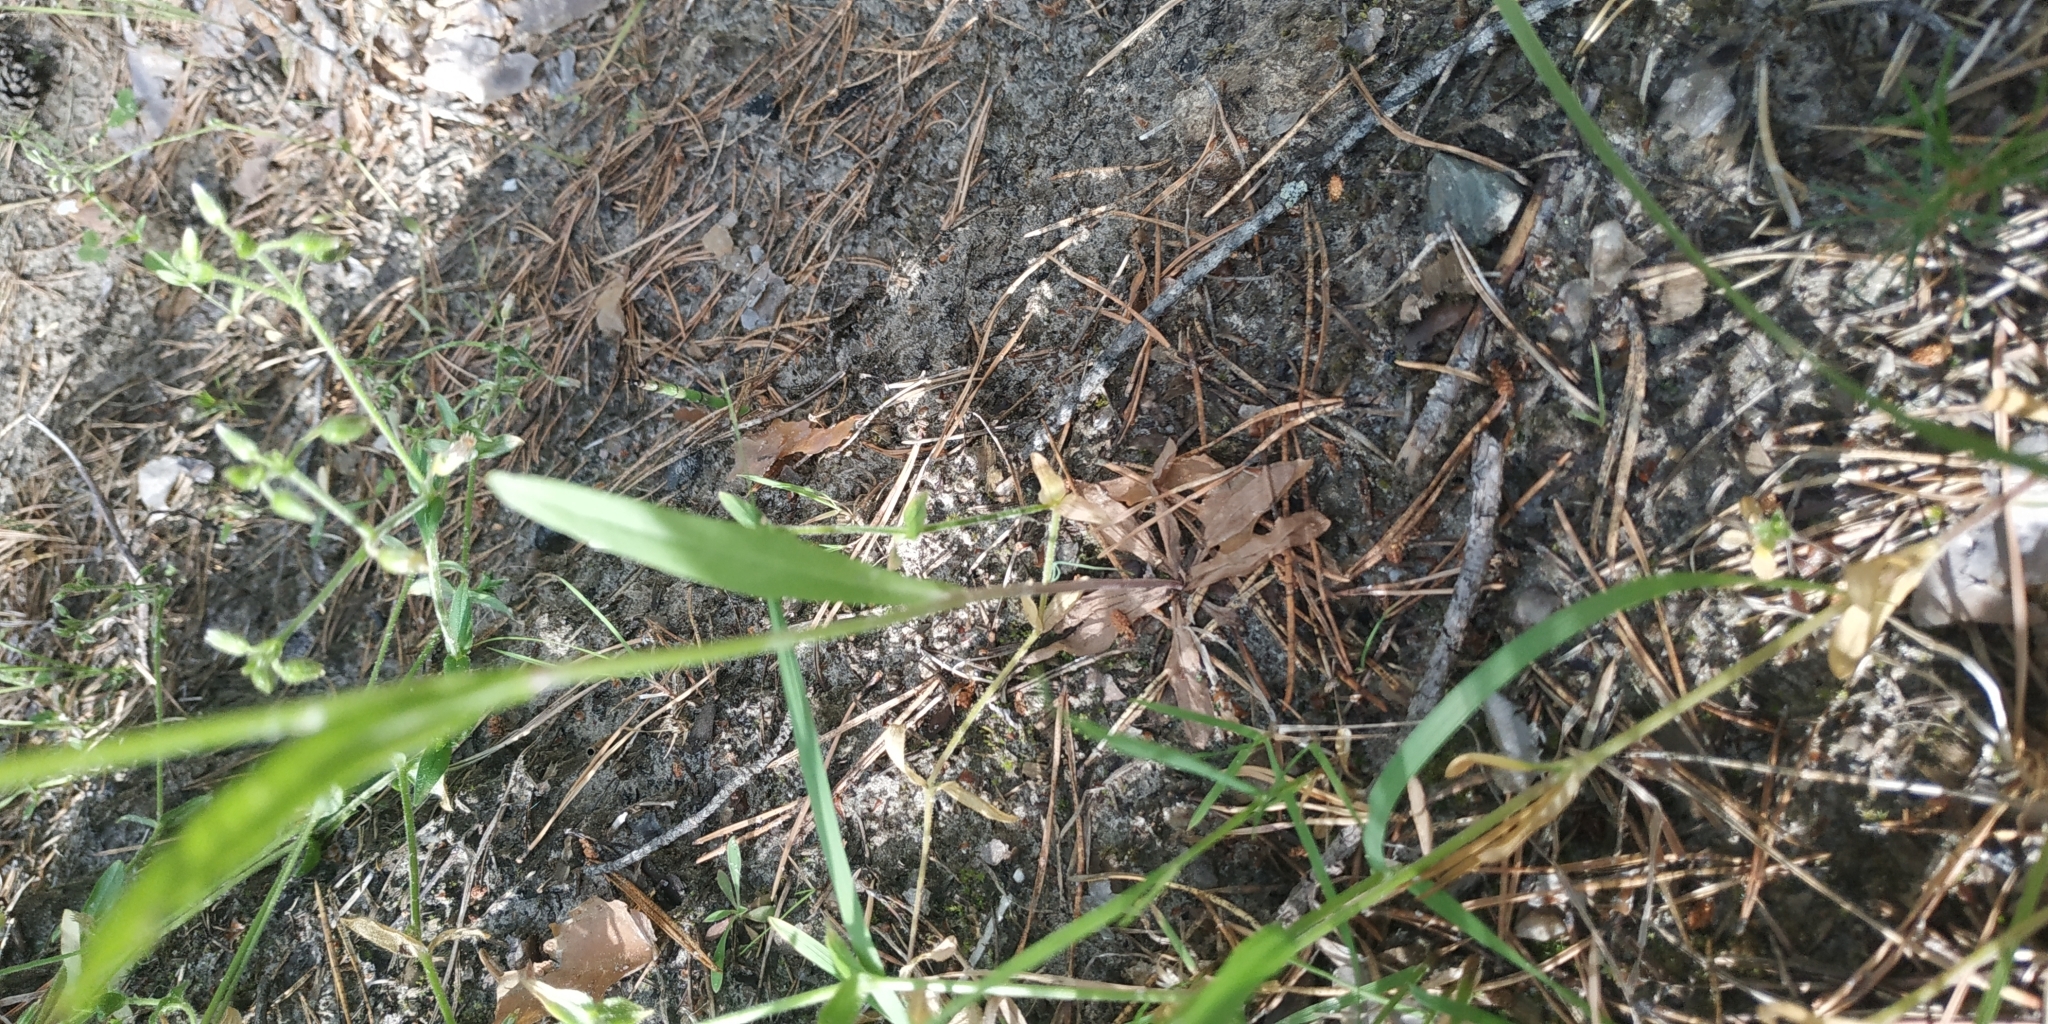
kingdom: Plantae
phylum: Tracheophyta
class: Magnoliopsida
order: Asterales
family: Asteraceae
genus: Crepis
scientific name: Crepis tectorum
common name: Narrow-leaved hawk's-beard
